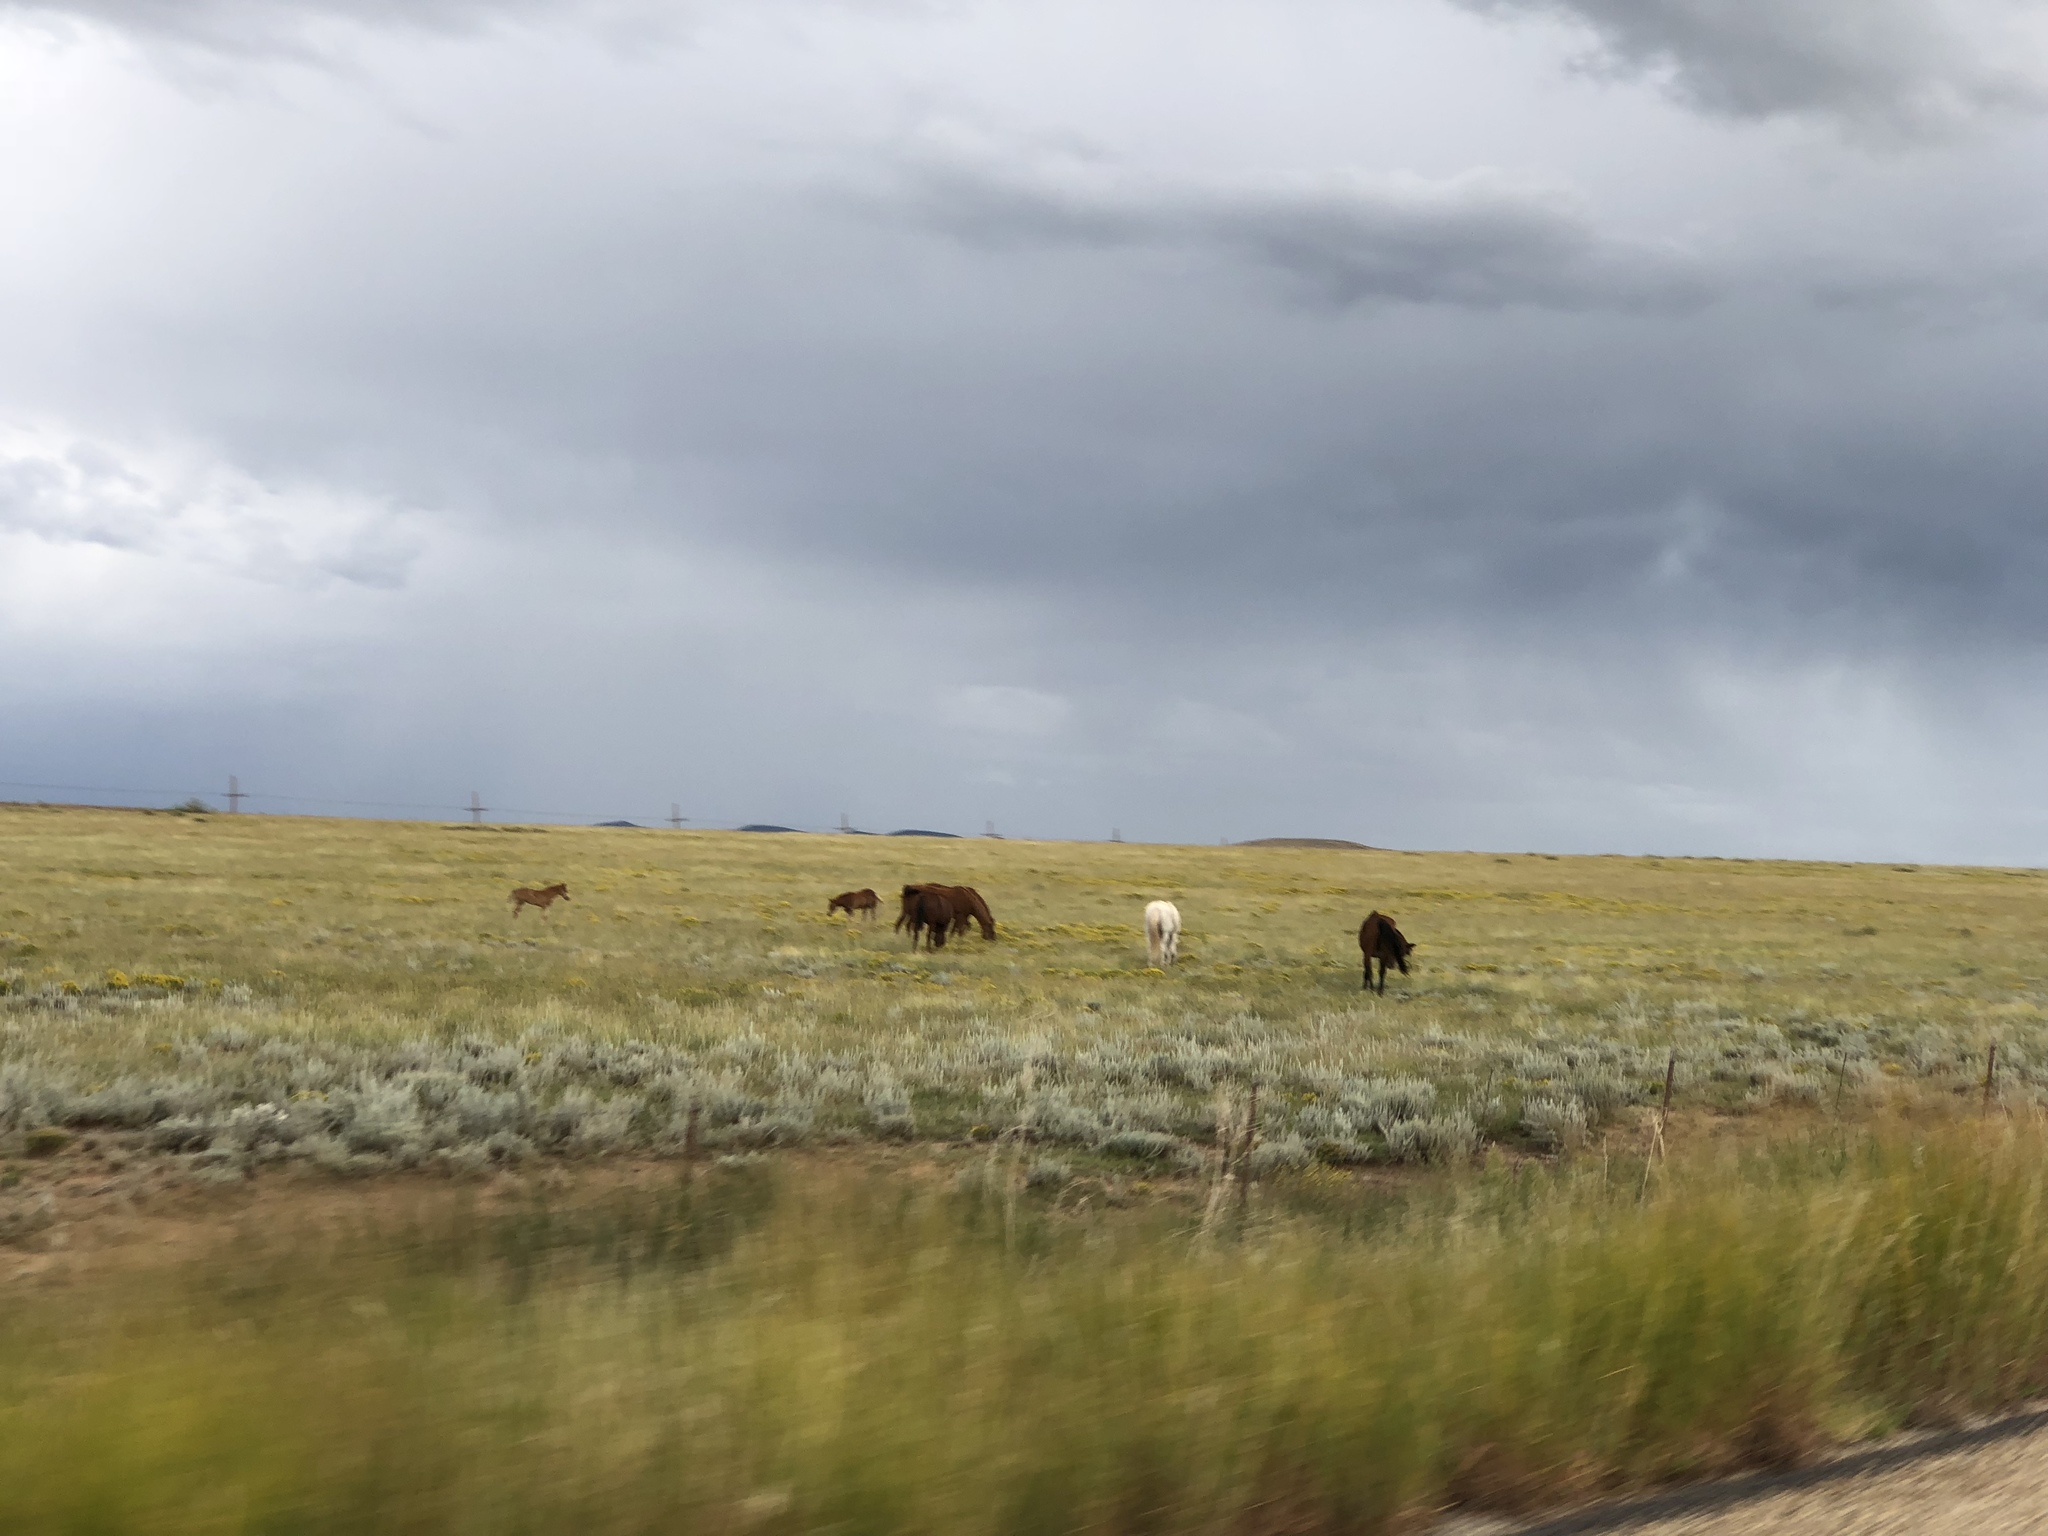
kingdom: Animalia
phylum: Chordata
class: Mammalia
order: Perissodactyla
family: Equidae
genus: Equus
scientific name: Equus caballus
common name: Horse
